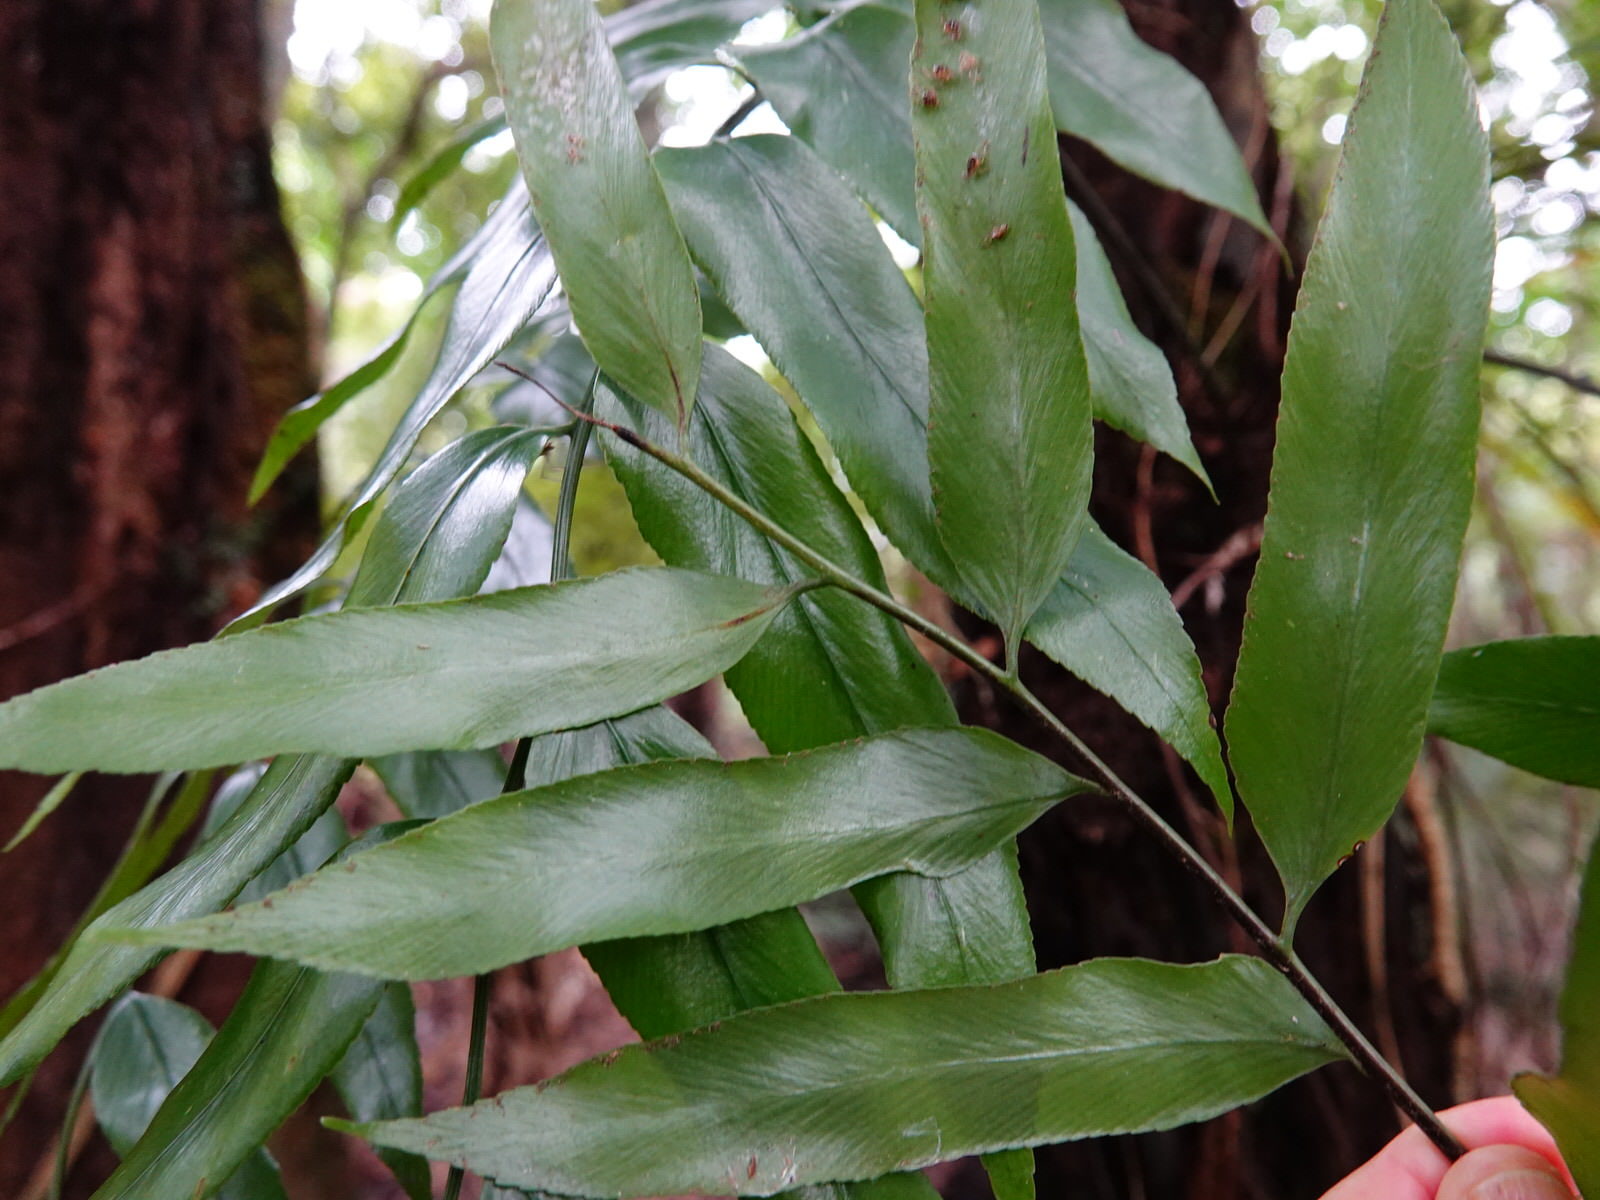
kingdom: Plantae
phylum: Tracheophyta
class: Polypodiopsida
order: Polypodiales
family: Aspleniaceae
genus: Asplenium
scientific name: Asplenium oblongifolium
